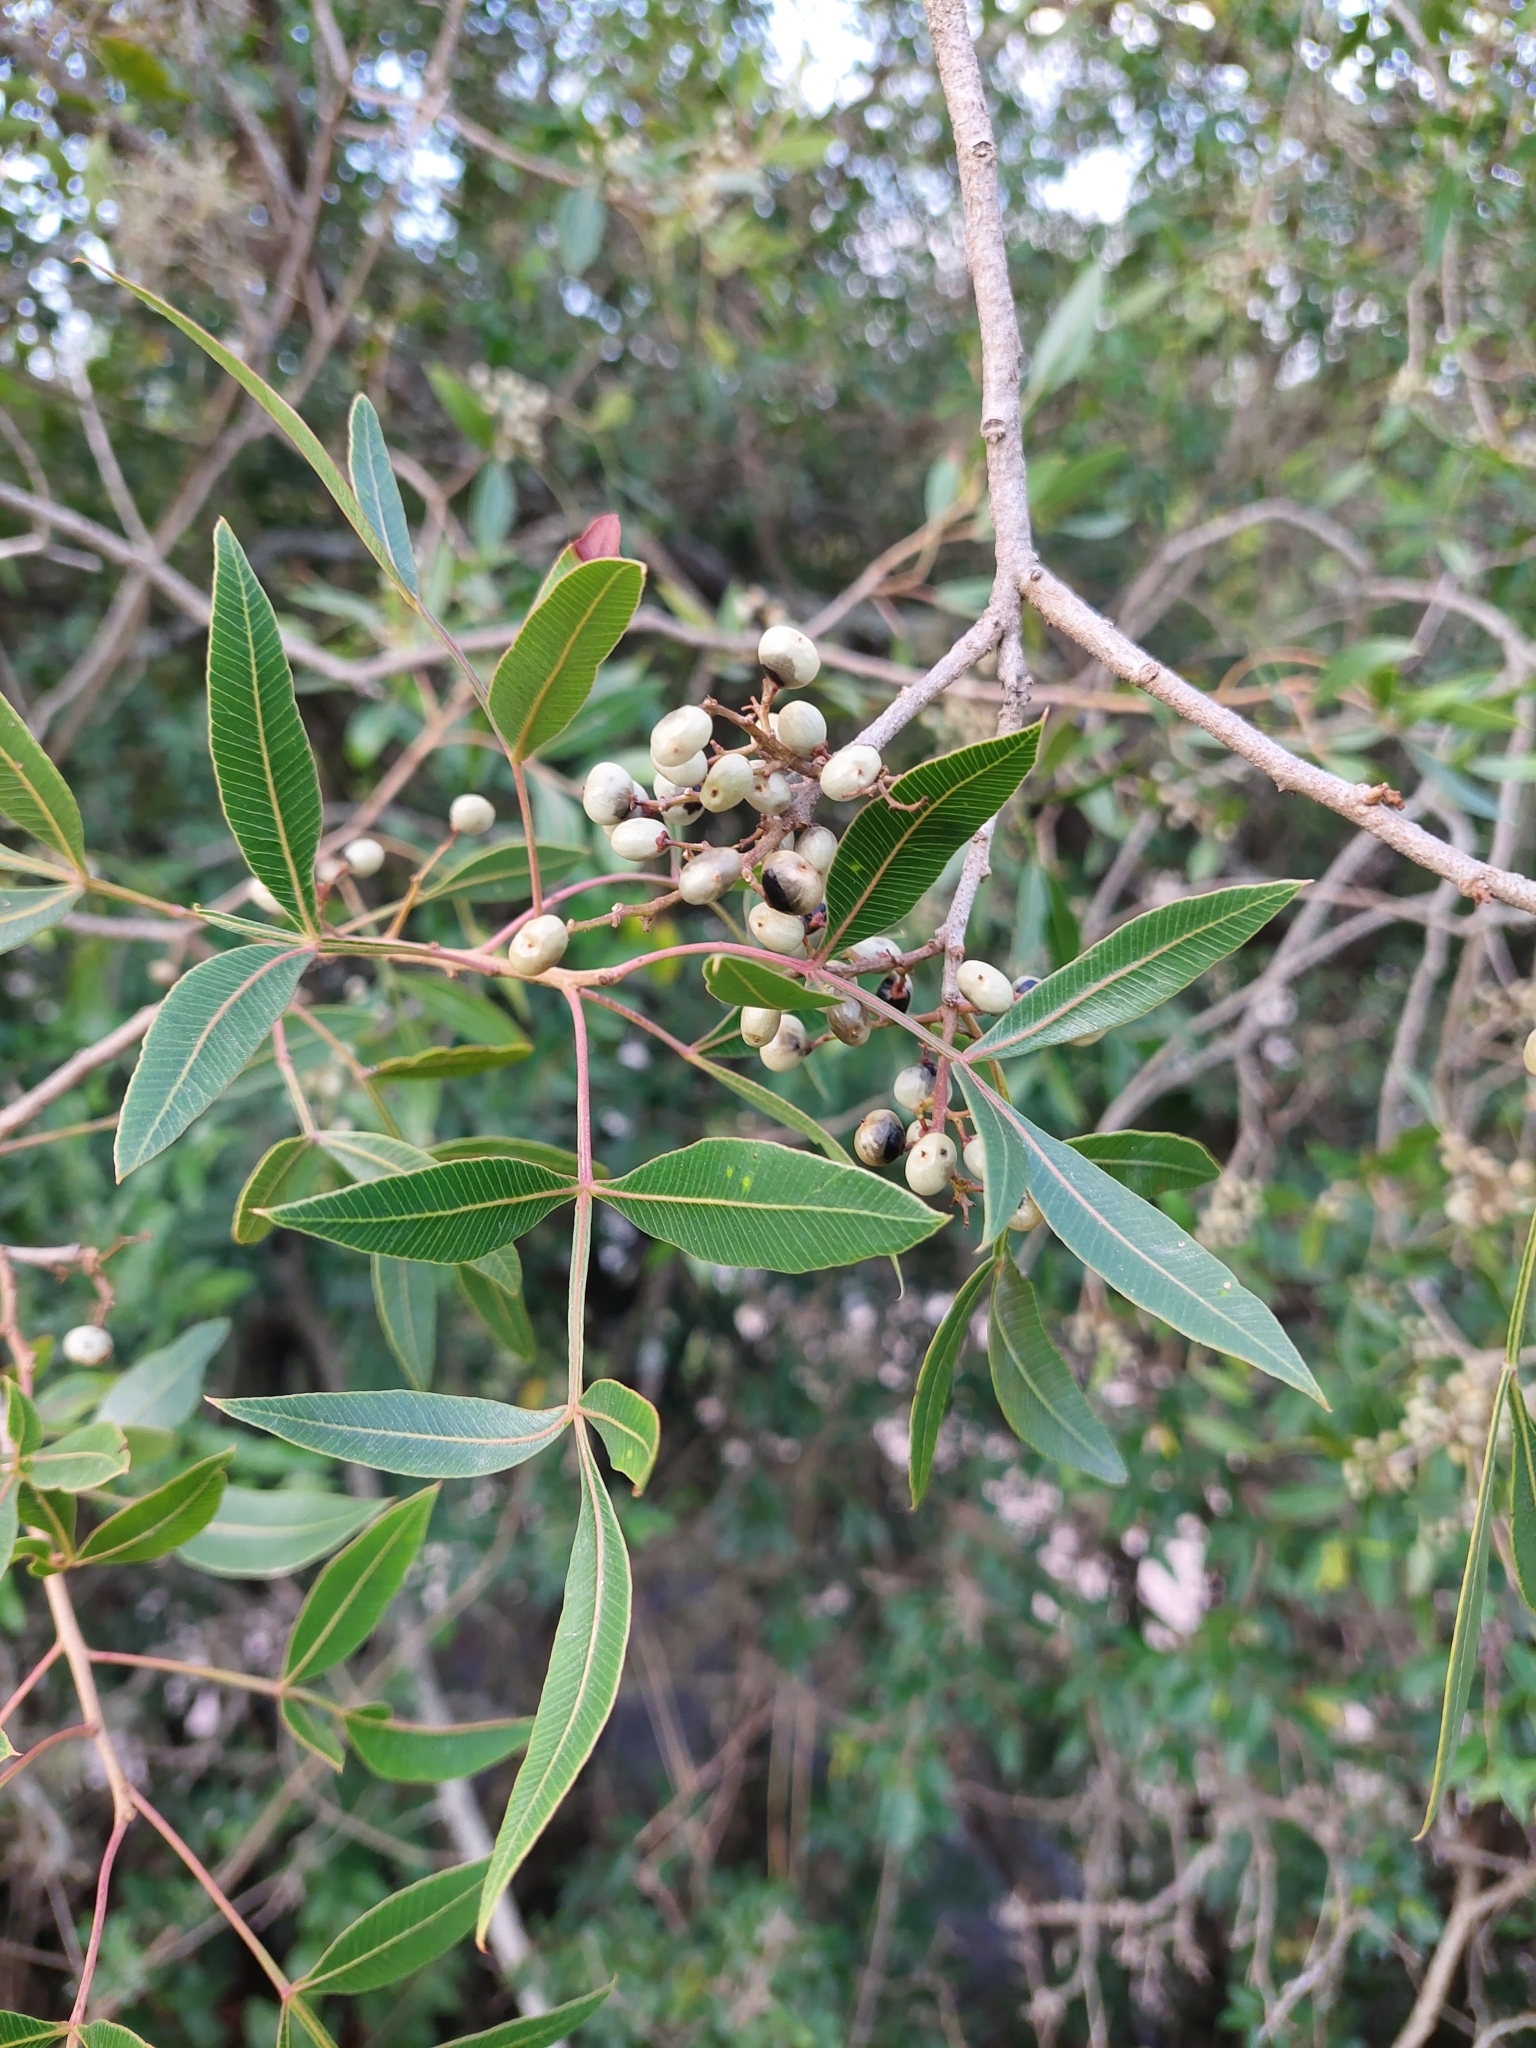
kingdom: Plantae
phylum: Tracheophyta
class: Magnoliopsida
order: Sapindales
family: Anacardiaceae
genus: Lithraea
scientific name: Lithraea molleoides
